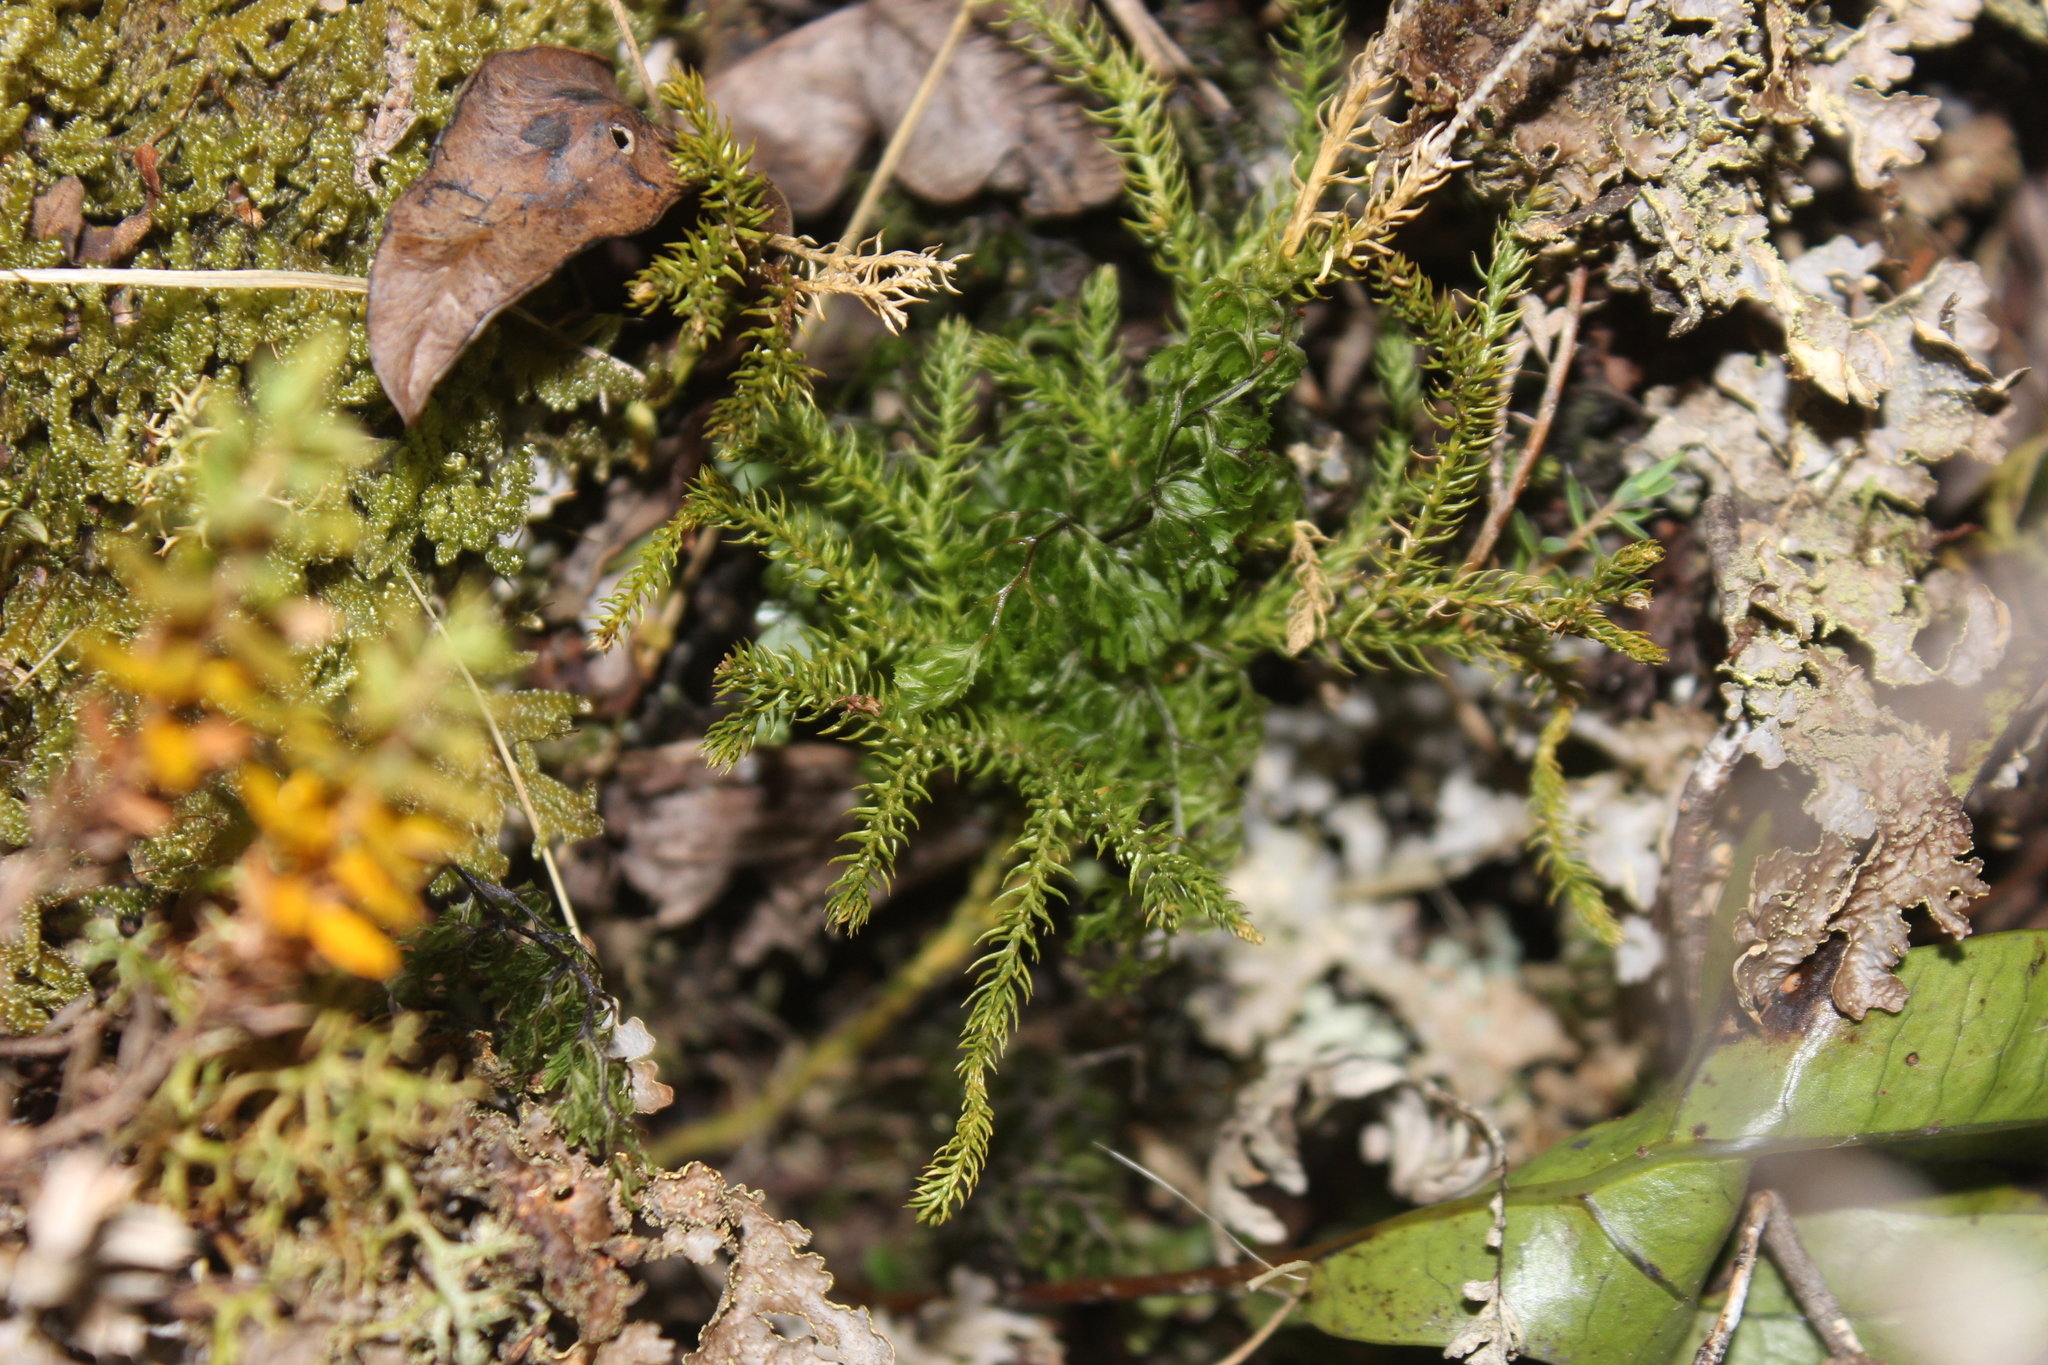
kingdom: Plantae
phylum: Tracheophyta
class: Lycopodiopsida
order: Lycopodiales
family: Lycopodiaceae
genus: Austrolycopodium
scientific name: Austrolycopodium fastigiatum
